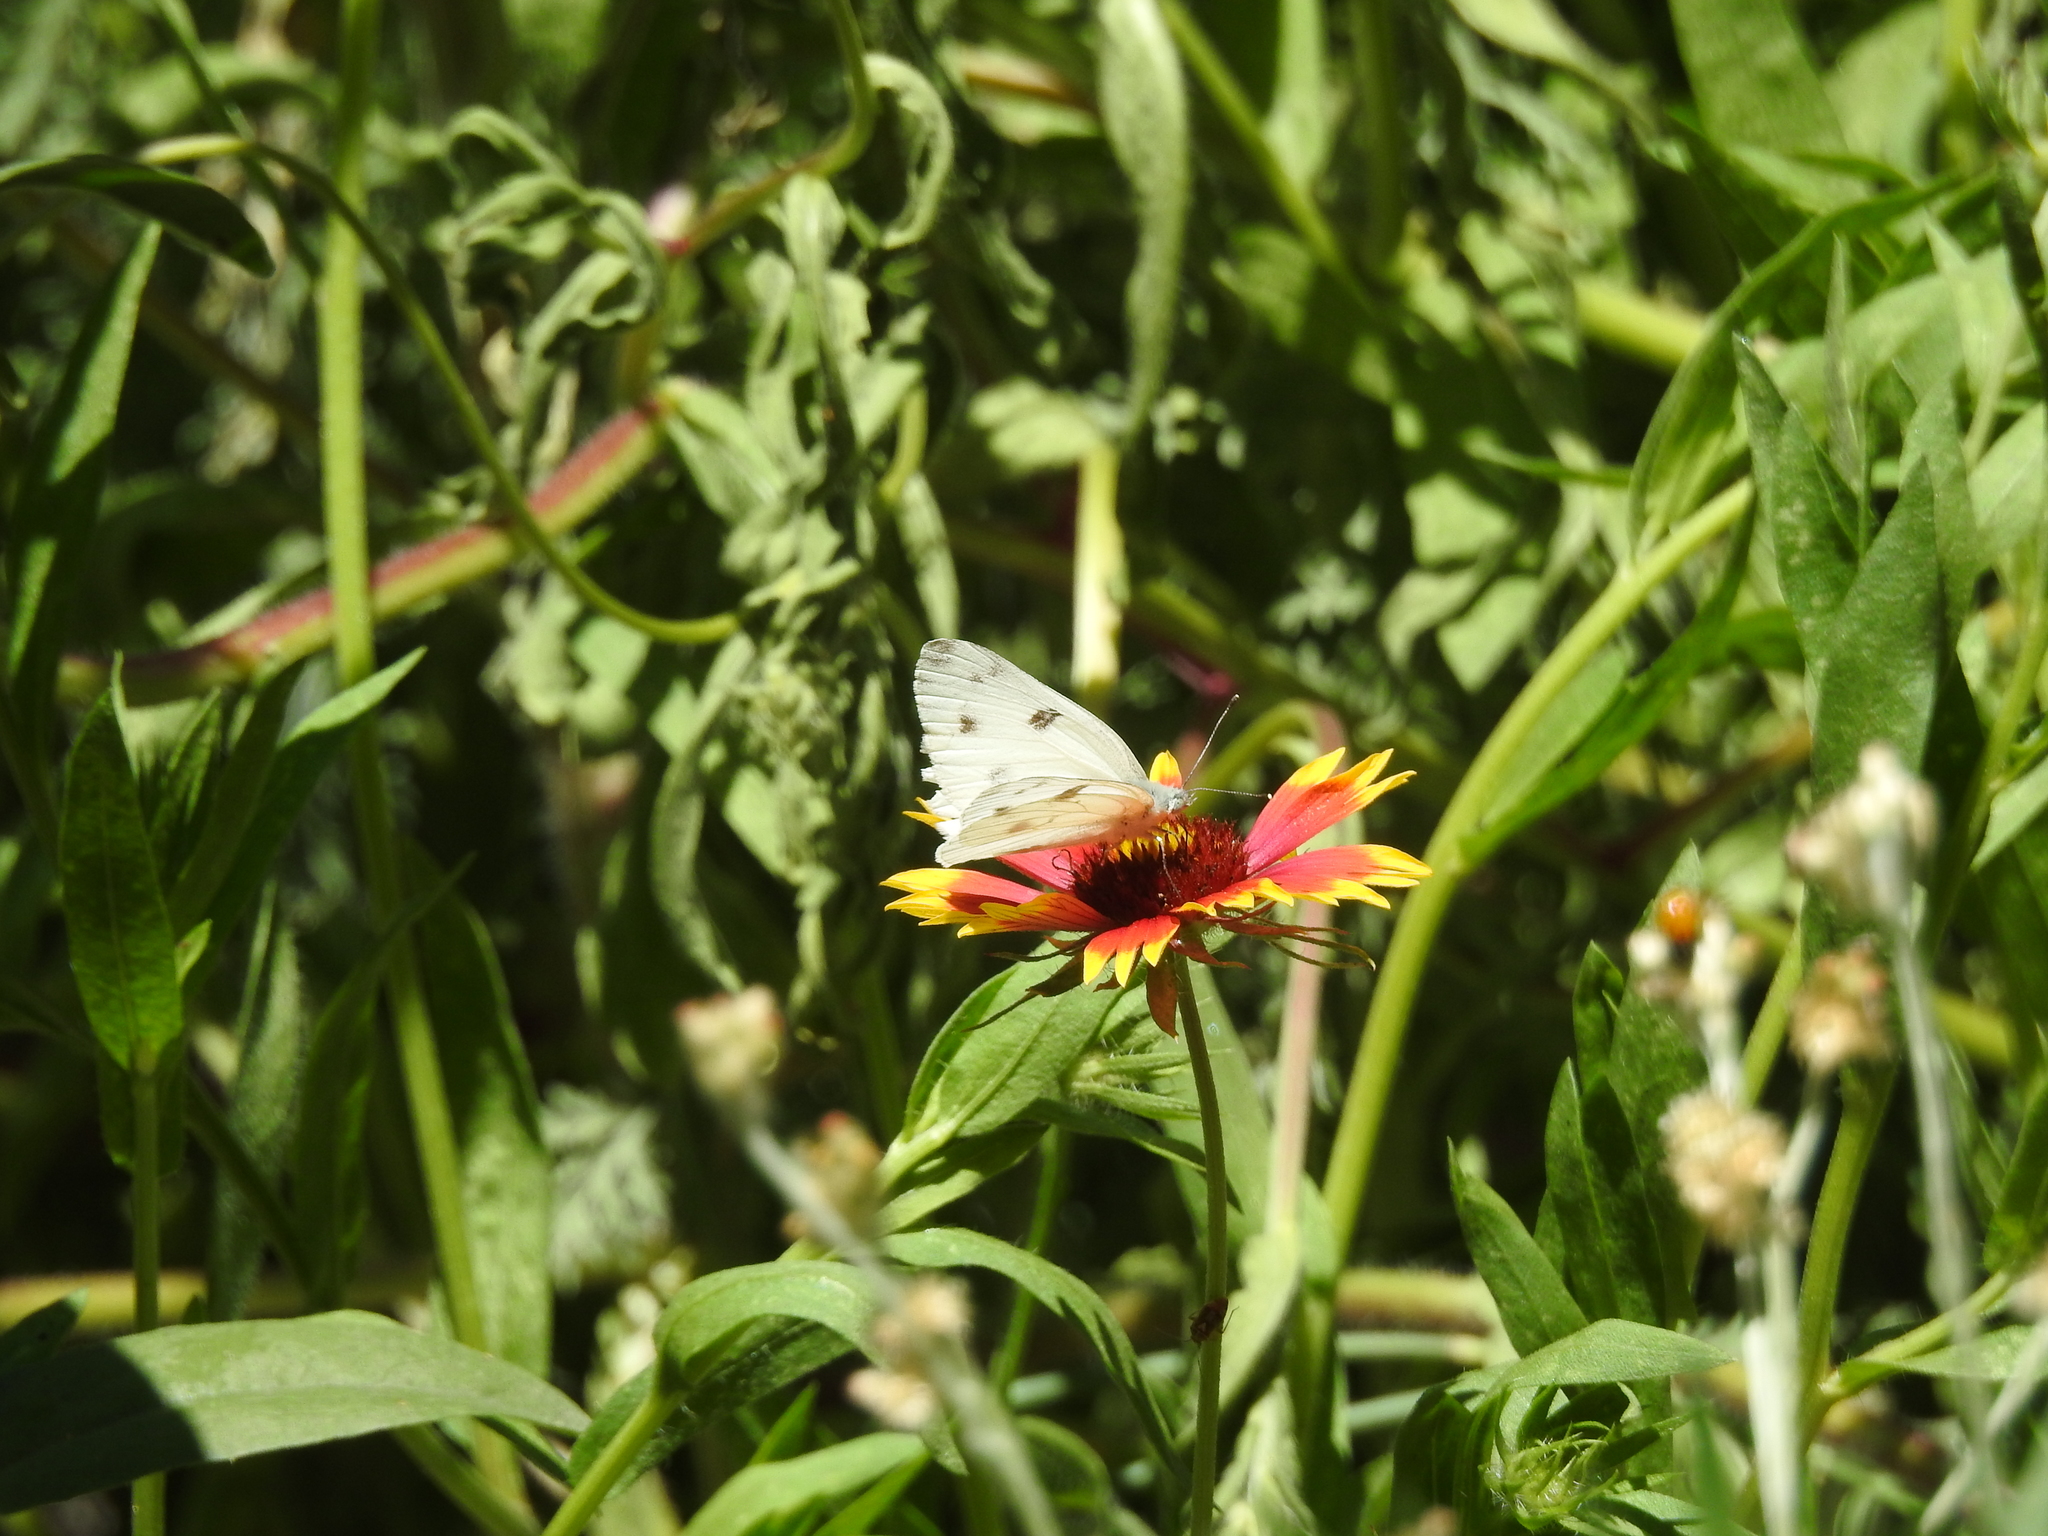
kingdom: Animalia
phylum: Arthropoda
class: Insecta
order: Lepidoptera
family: Pieridae
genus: Pontia
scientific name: Pontia protodice
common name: Checkered white
